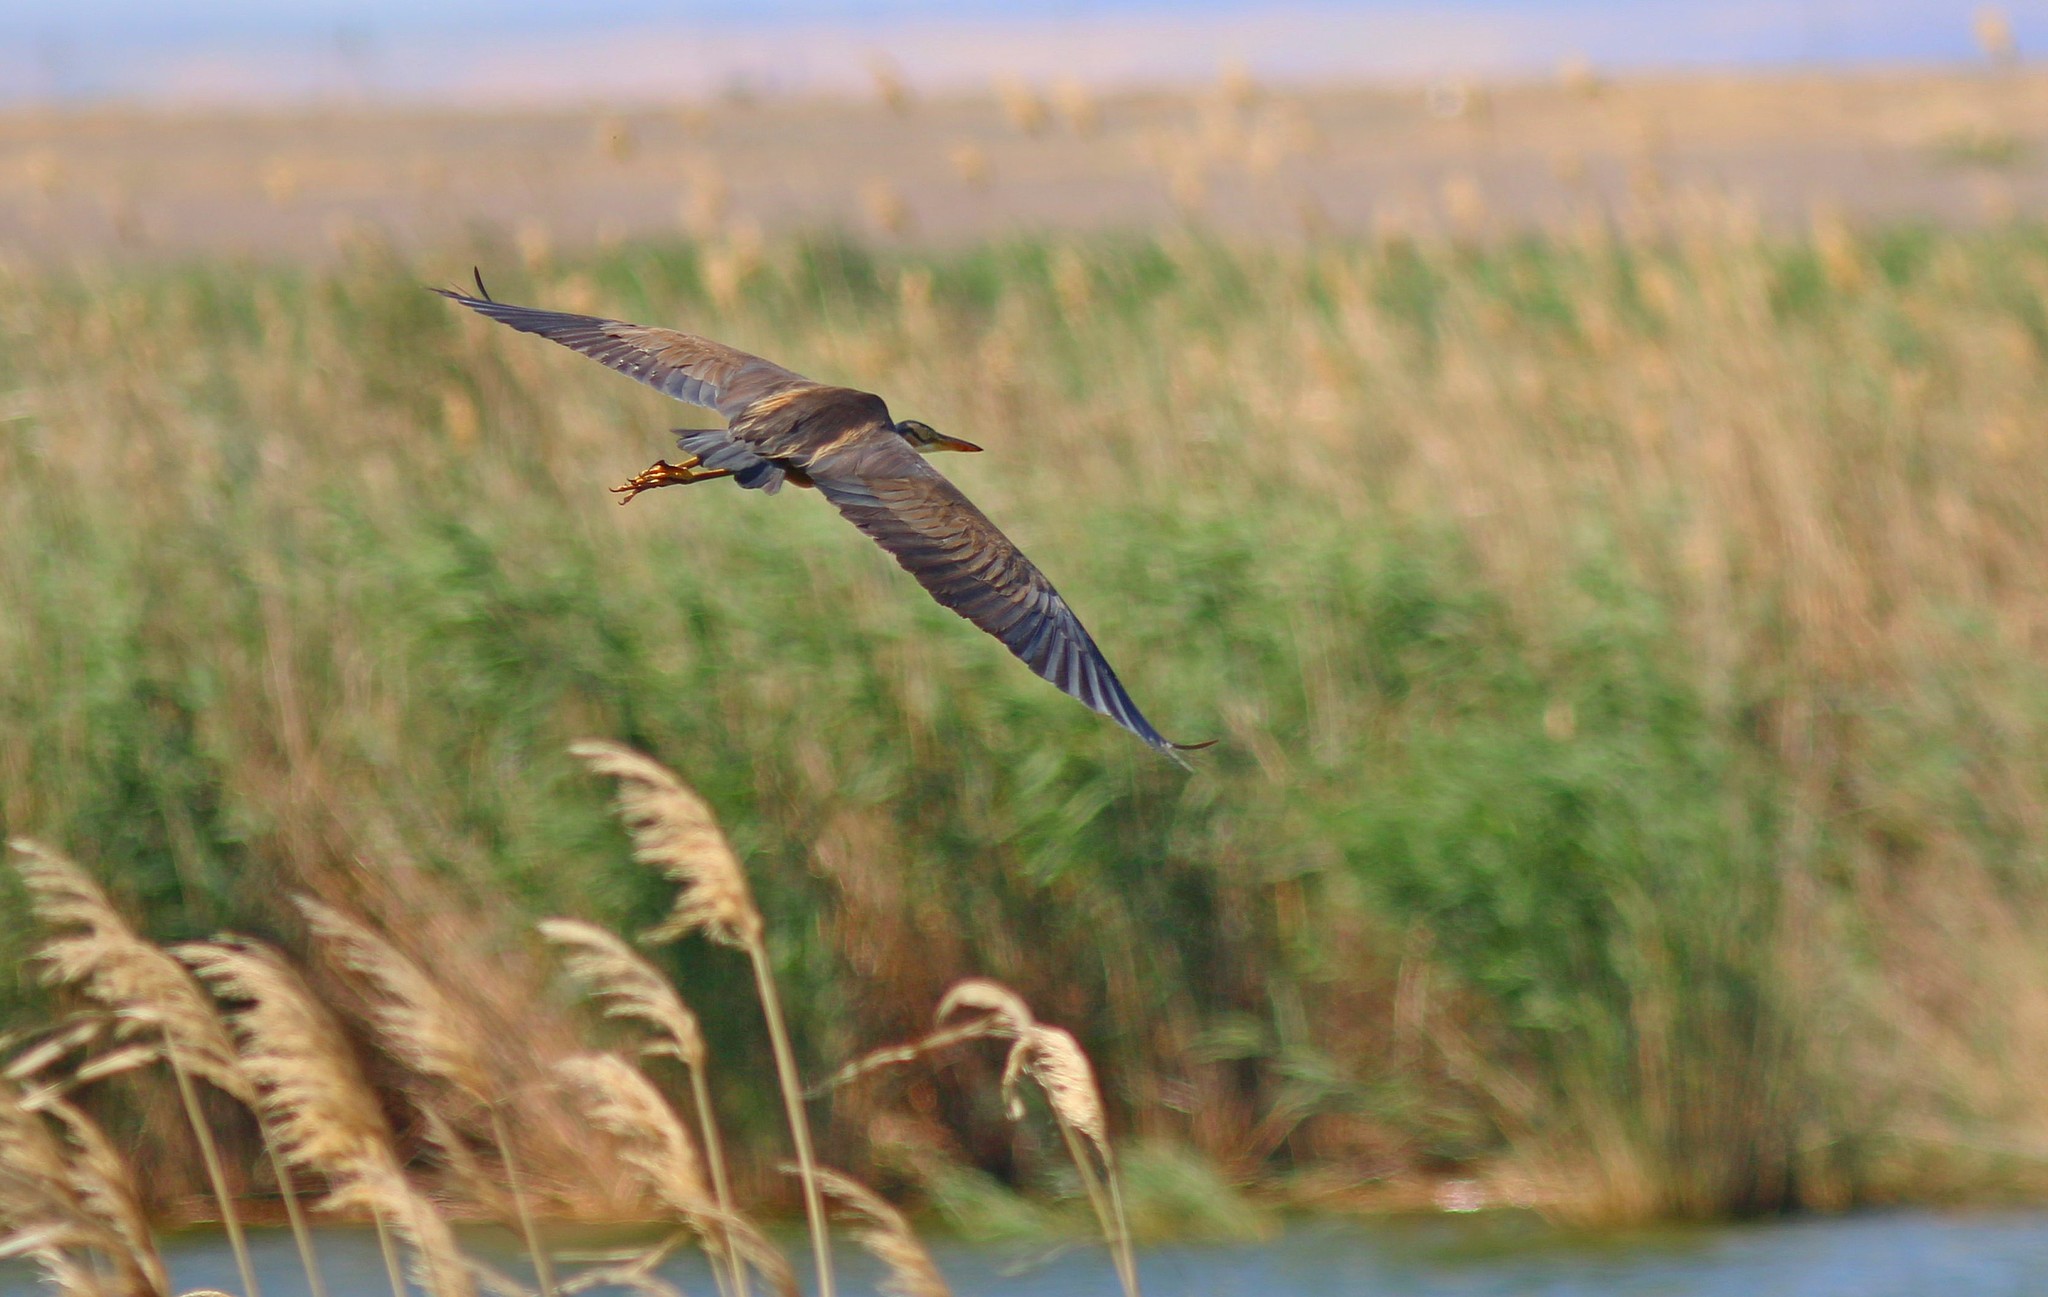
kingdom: Animalia
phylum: Chordata
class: Aves
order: Pelecaniformes
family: Ardeidae
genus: Ardea
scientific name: Ardea purpurea
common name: Purple heron
